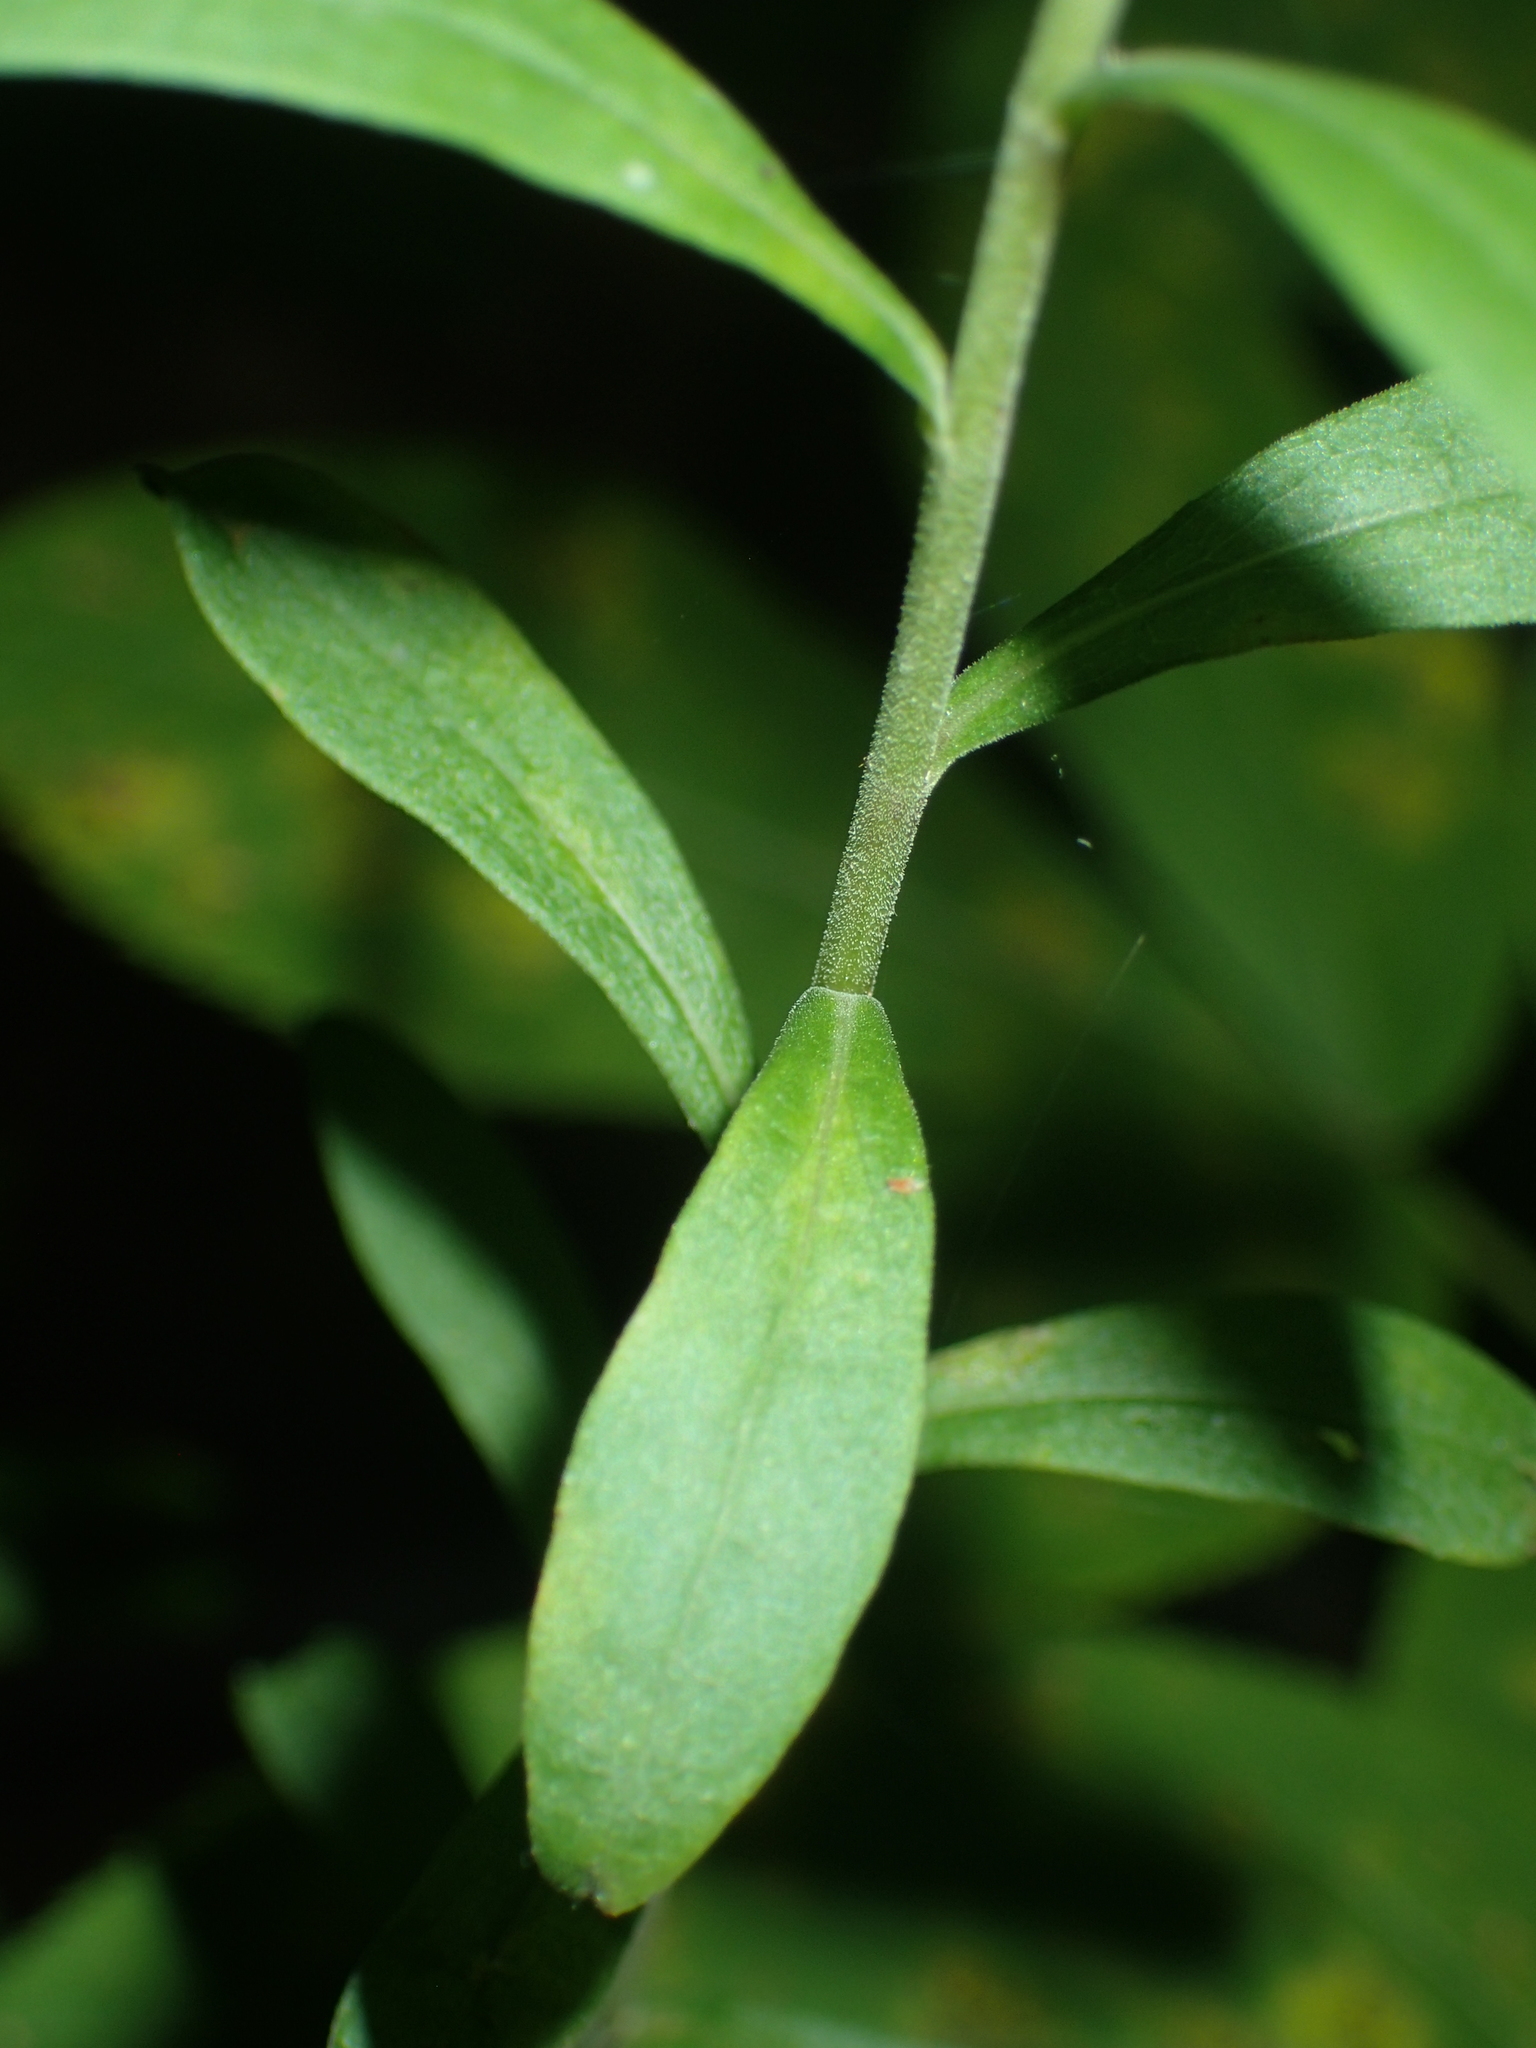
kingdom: Plantae
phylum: Tracheophyta
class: Magnoliopsida
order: Asterales
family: Asteraceae
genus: Solidago
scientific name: Solidago bicolor
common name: Silverrod
